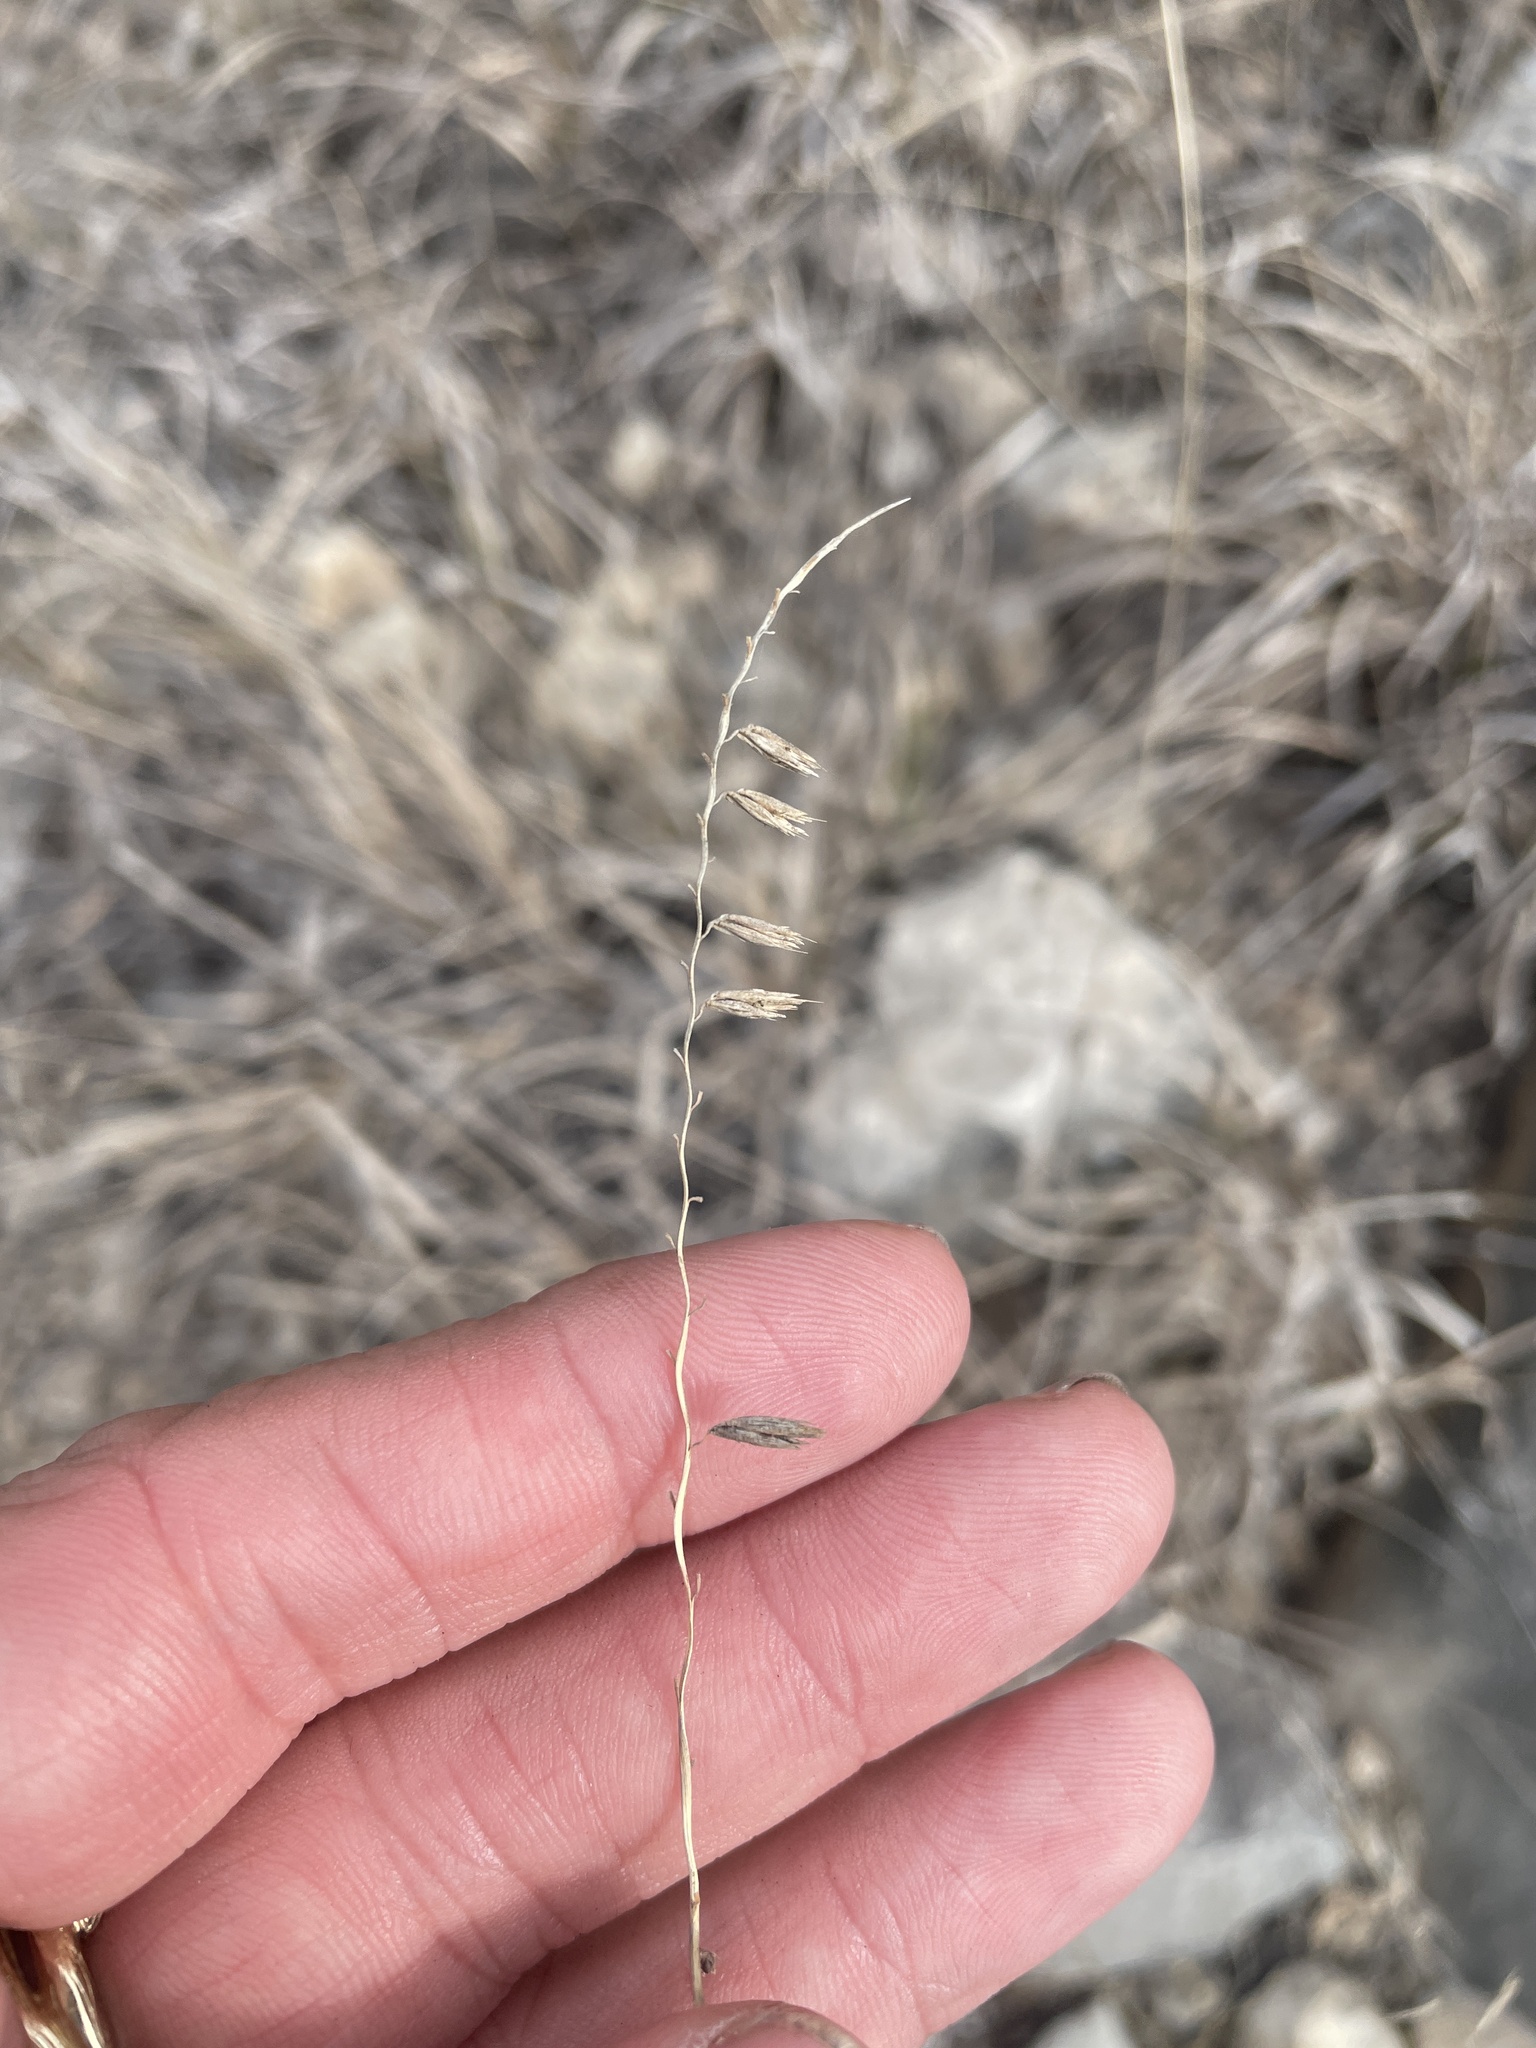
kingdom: Plantae
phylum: Tracheophyta
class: Liliopsida
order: Poales
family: Poaceae
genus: Bouteloua
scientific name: Bouteloua curtipendula
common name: Side-oats grama
